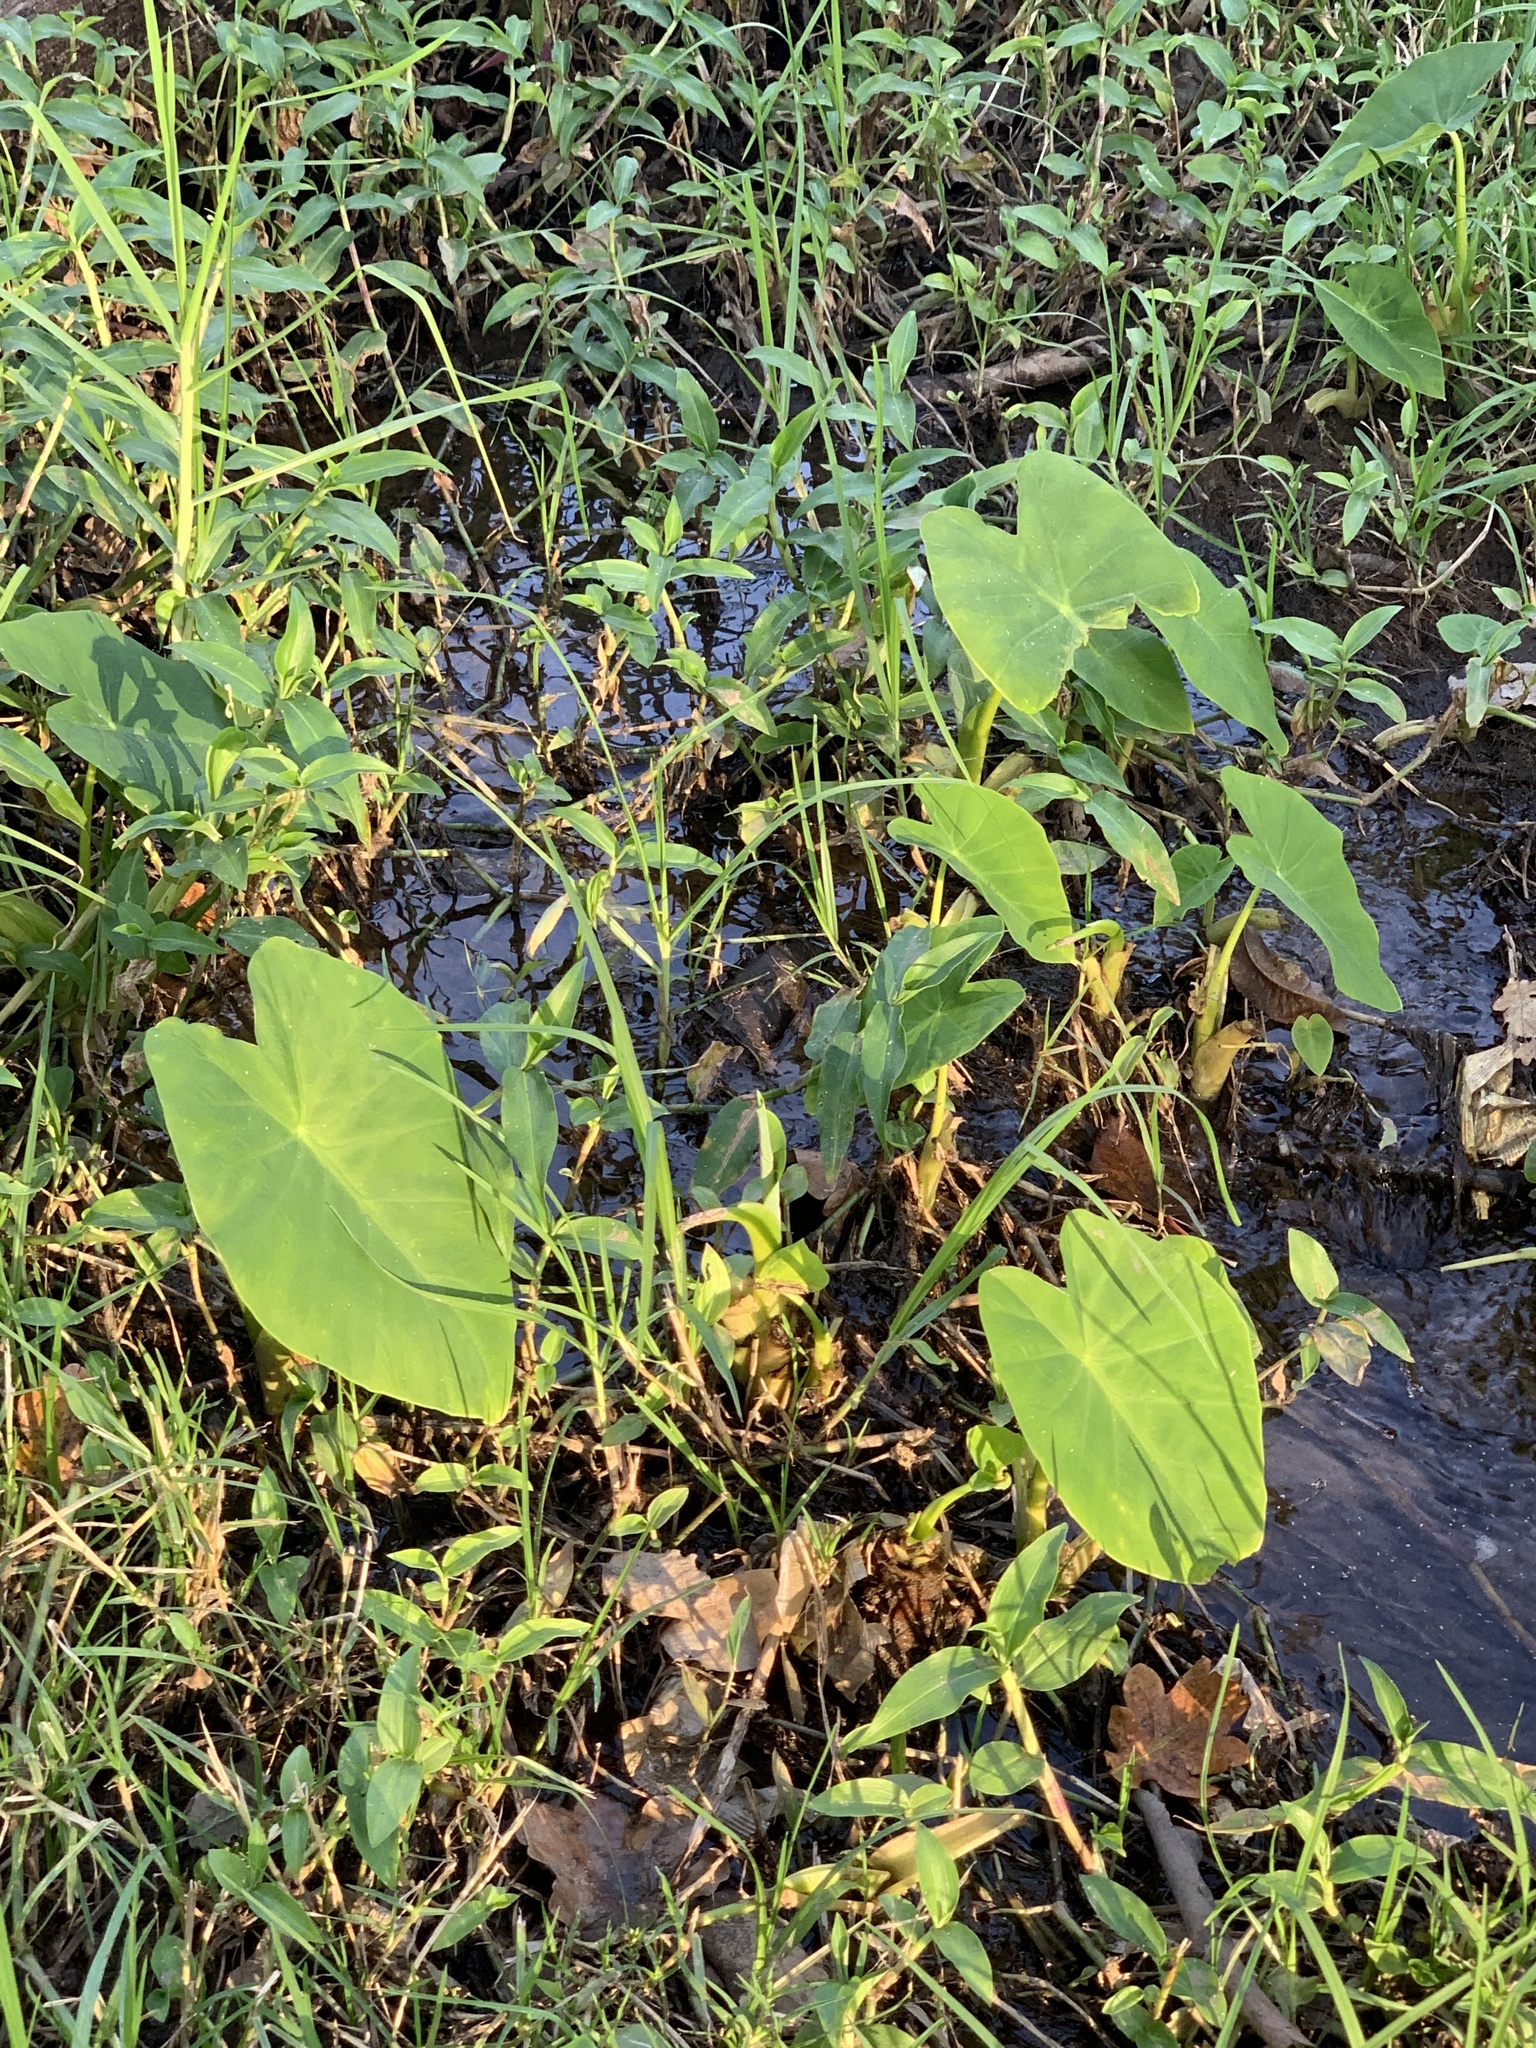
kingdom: Plantae
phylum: Tracheophyta
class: Liliopsida
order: Alismatales
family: Araceae
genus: Colocasia
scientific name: Colocasia esculenta
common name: Taro
